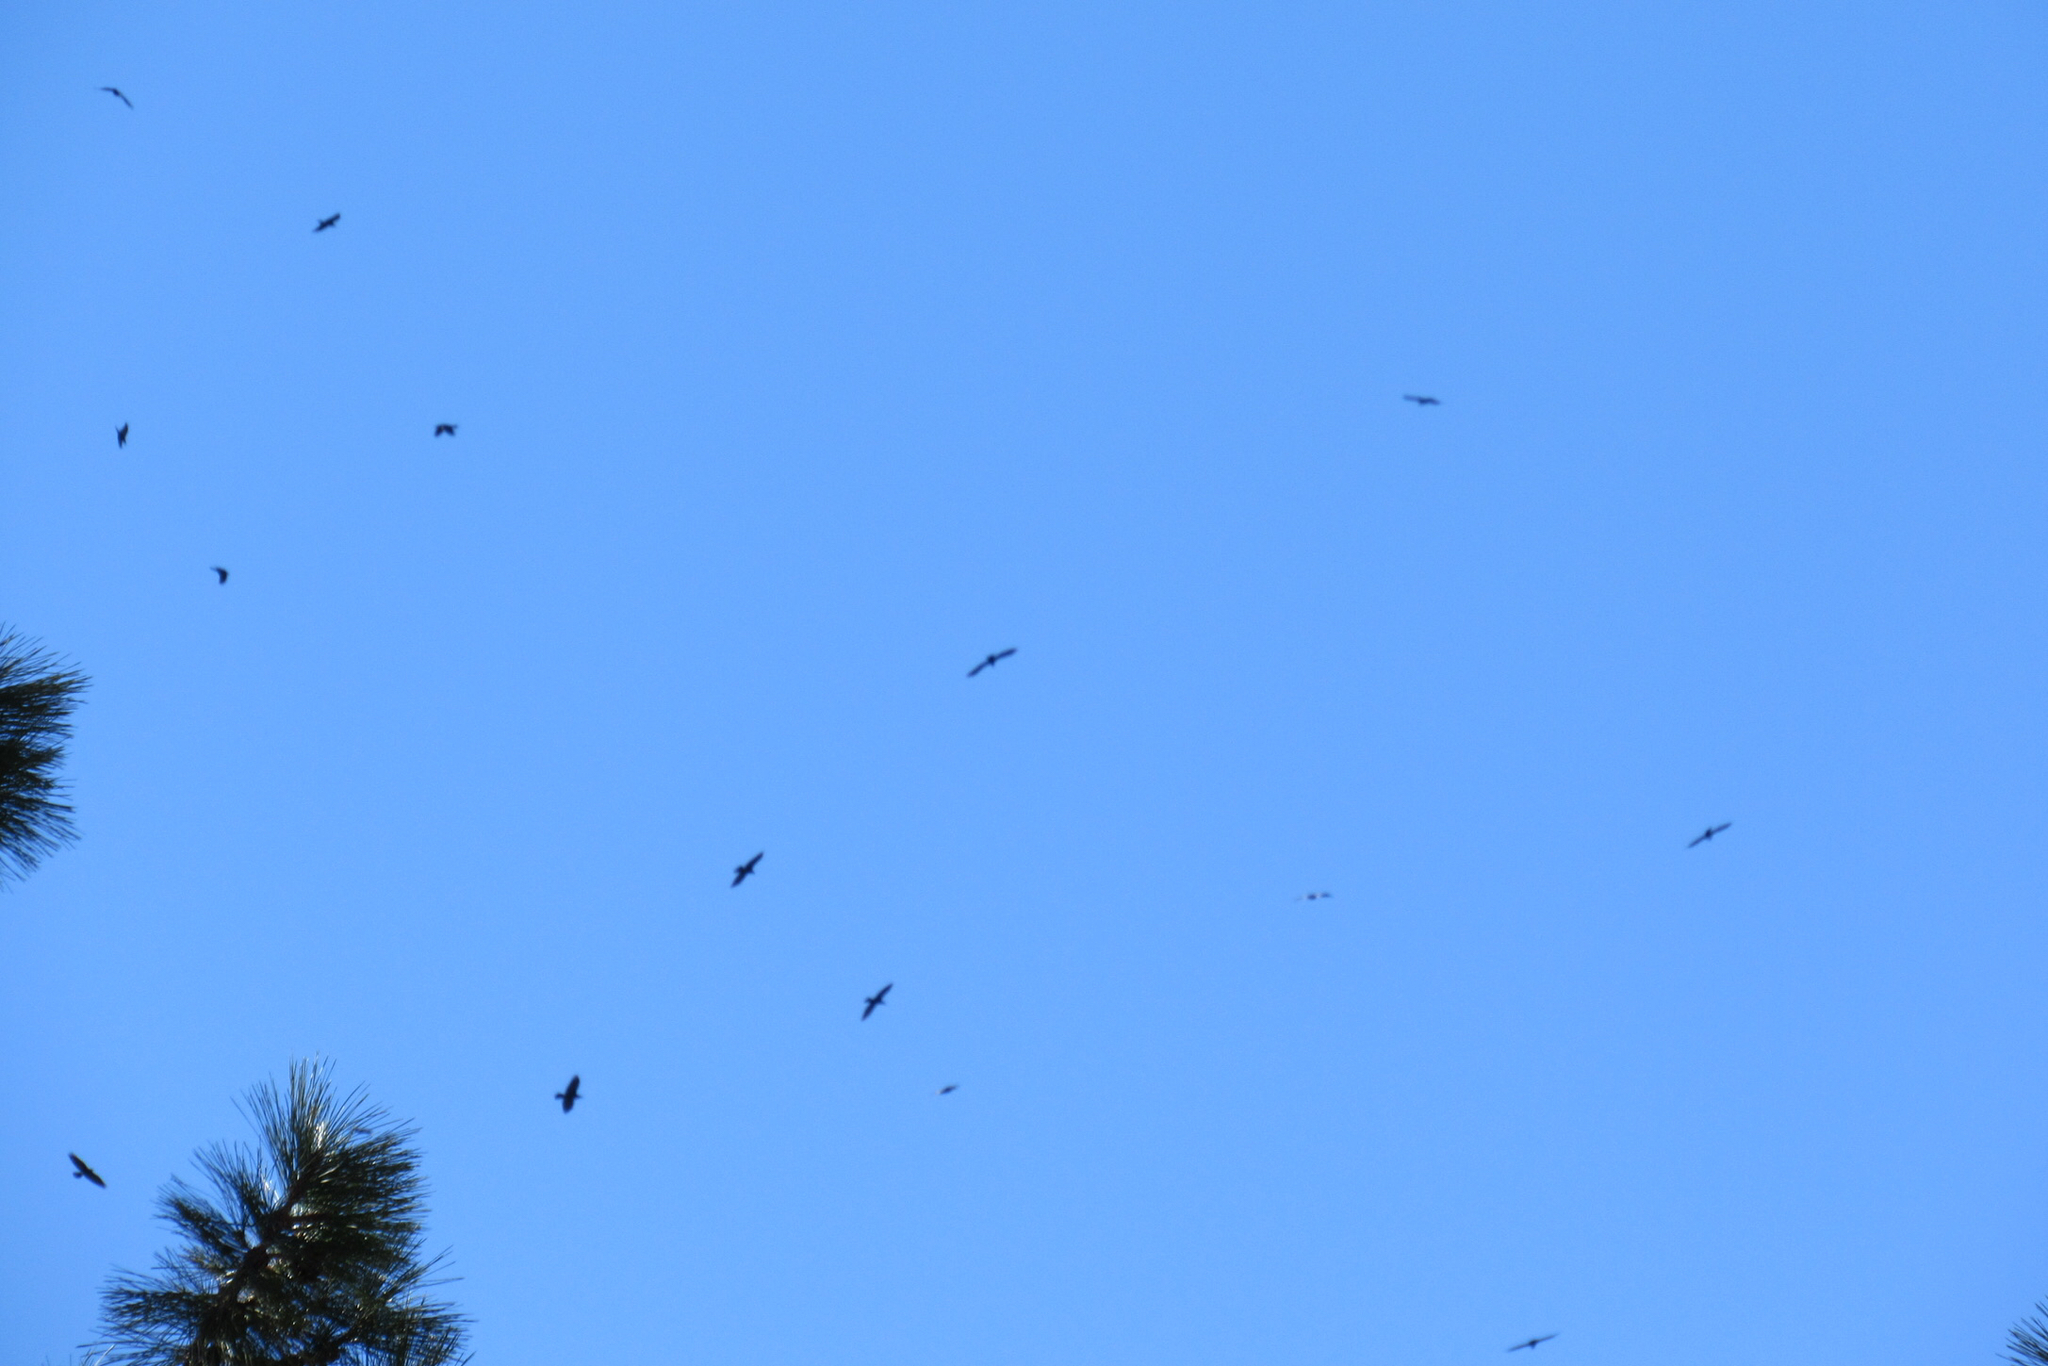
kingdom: Animalia
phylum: Chordata
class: Aves
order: Passeriformes
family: Corvidae
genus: Corvus
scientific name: Corvus corax
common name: Common raven
